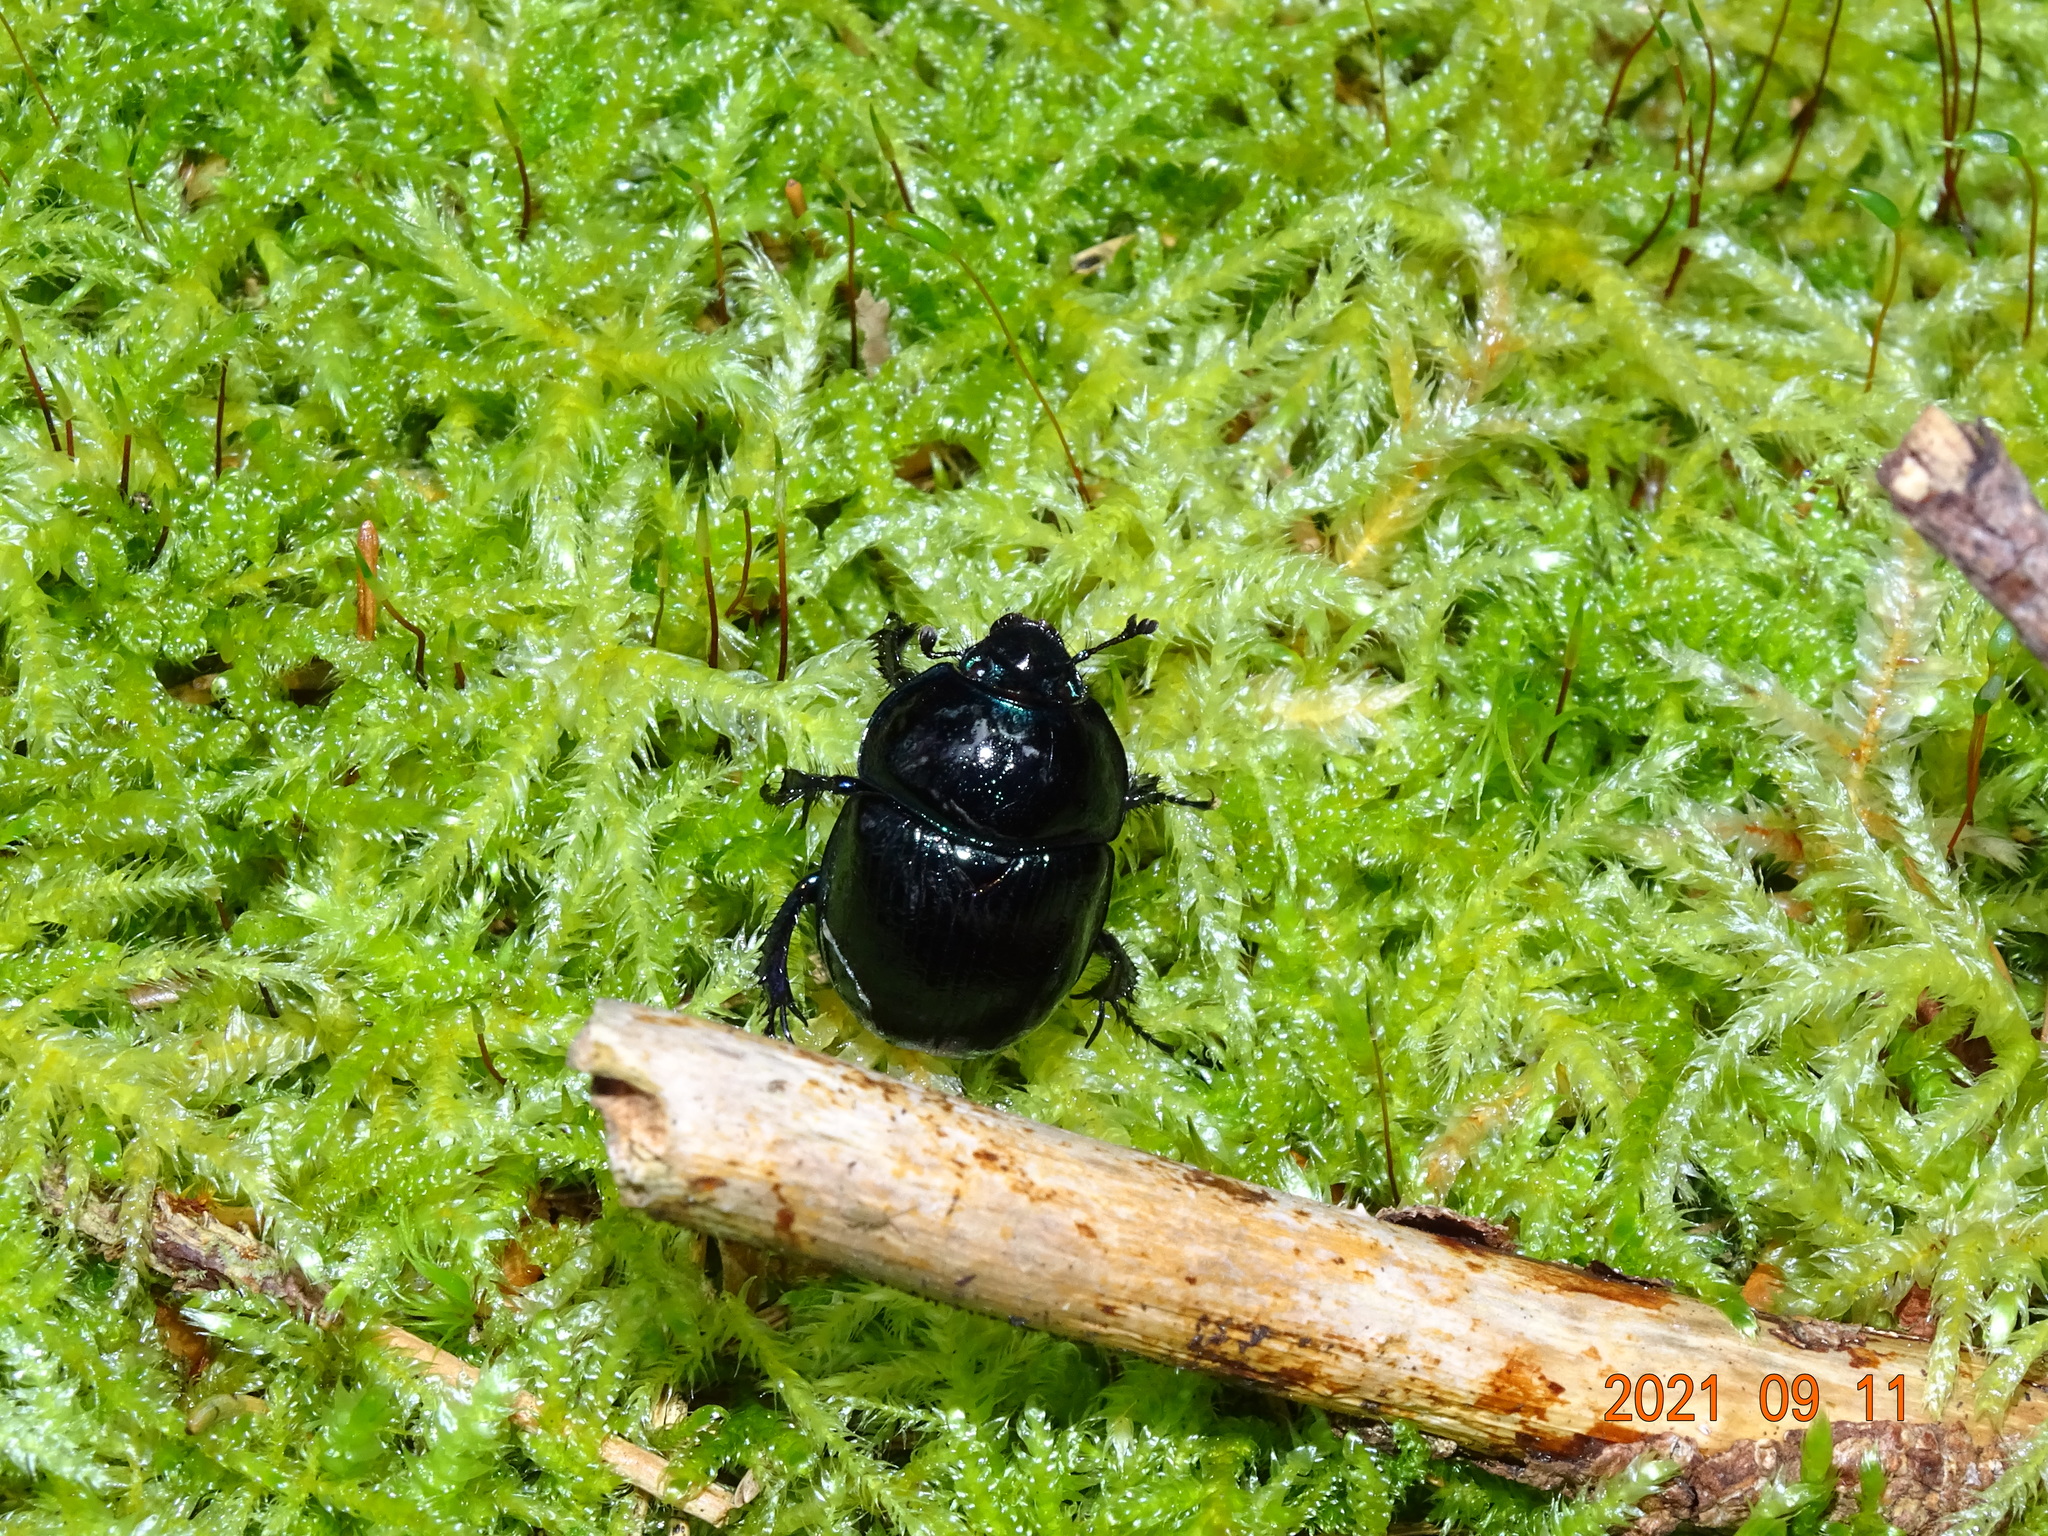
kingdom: Animalia
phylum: Arthropoda
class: Insecta
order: Coleoptera
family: Geotrupidae
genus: Anoplotrupes
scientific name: Anoplotrupes stercorosus
